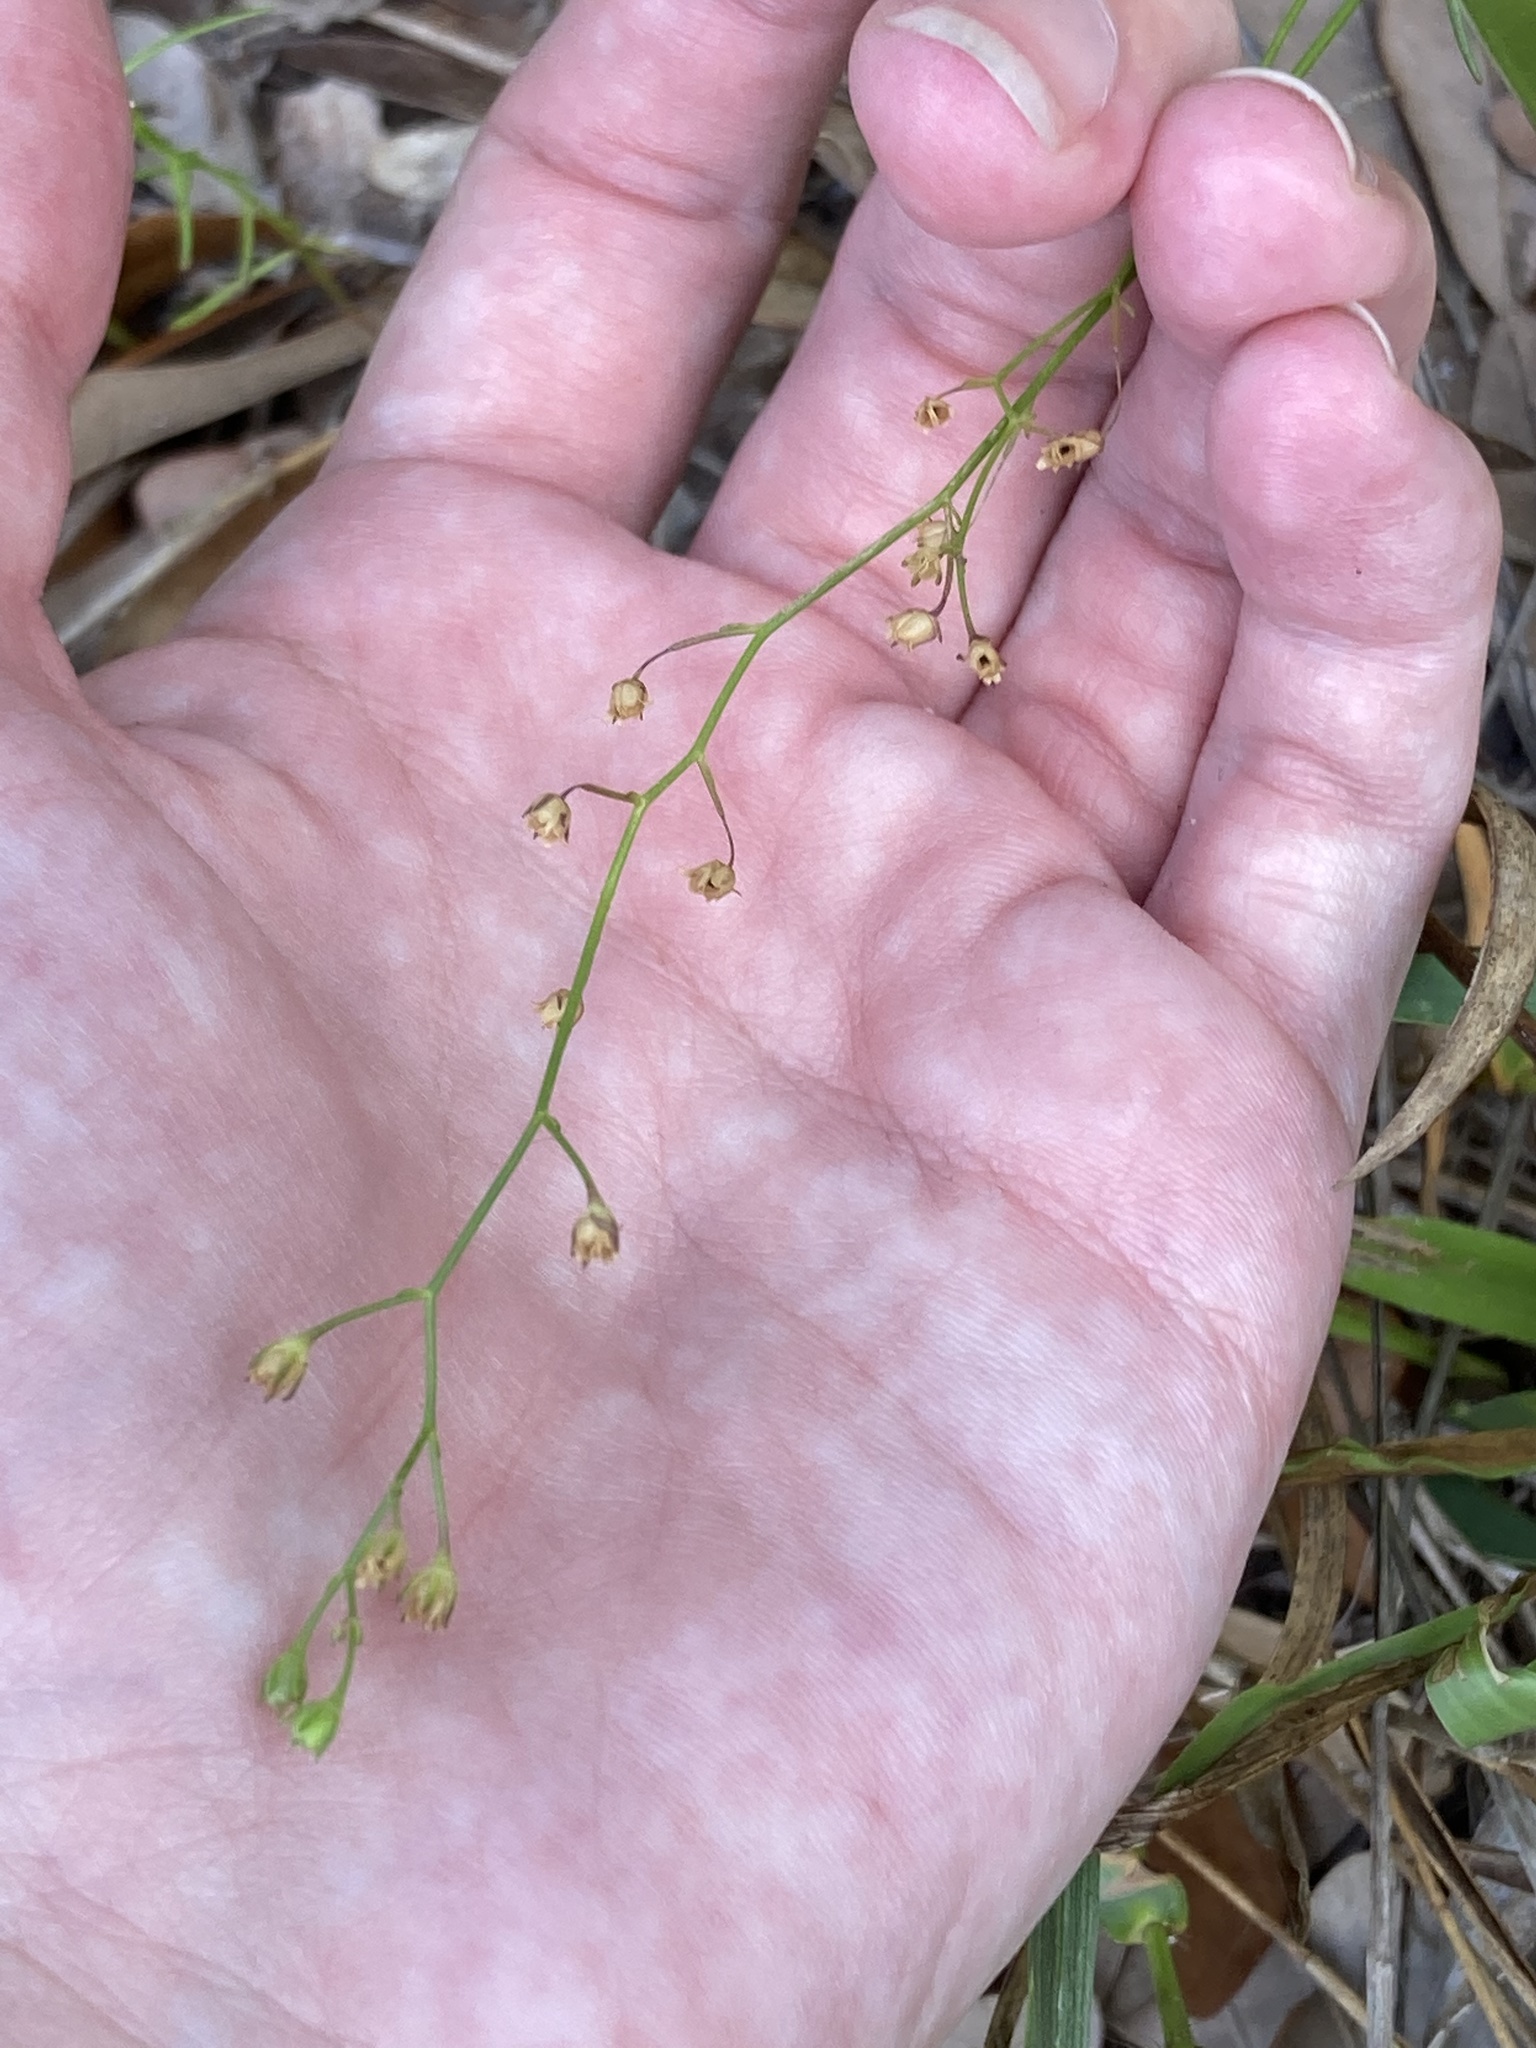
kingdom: Plantae
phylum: Tracheophyta
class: Magnoliopsida
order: Lamiales
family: Plantaginaceae
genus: Nuttallanthus
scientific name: Nuttallanthus floridanus
